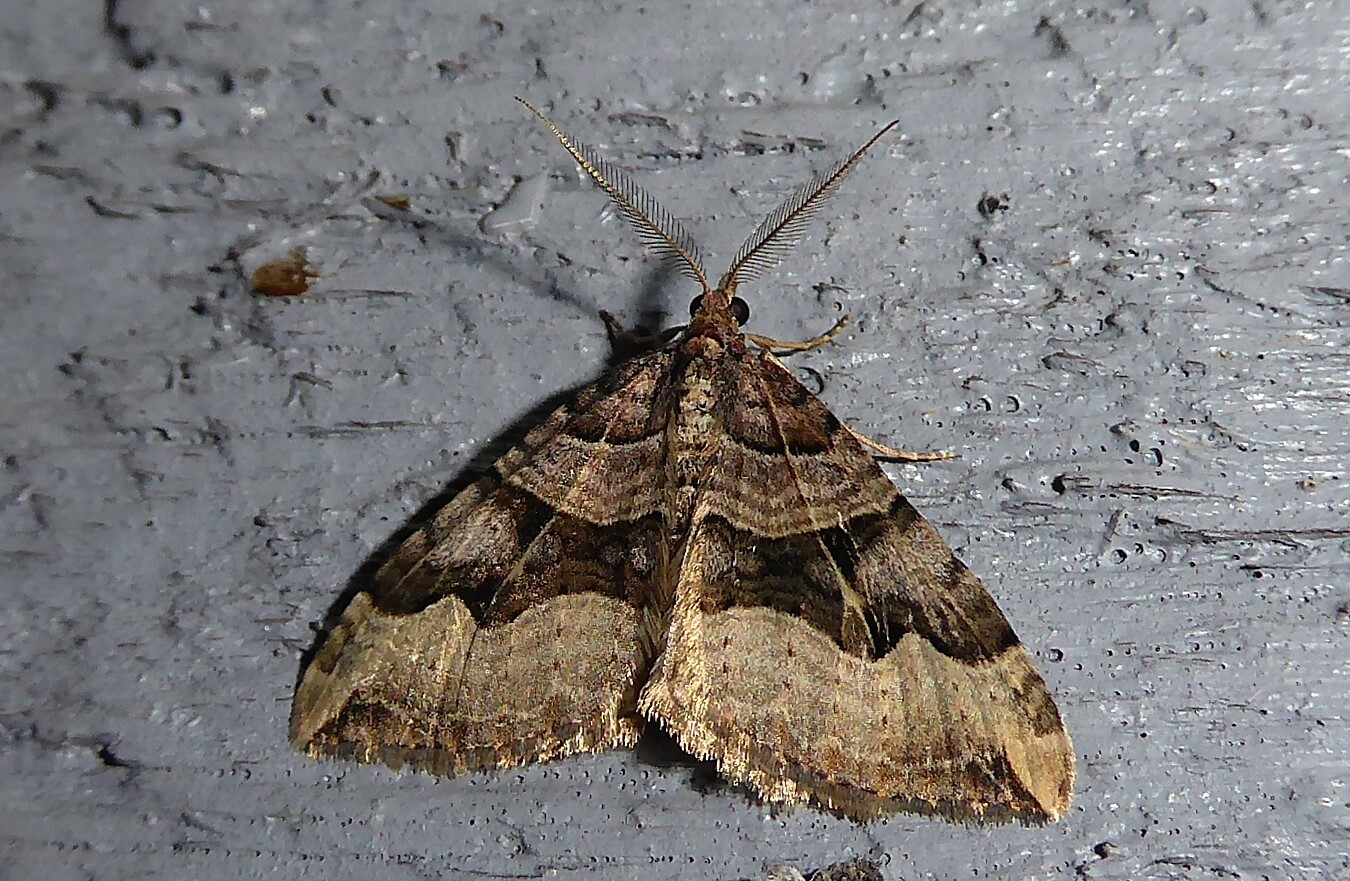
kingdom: Animalia
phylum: Arthropoda
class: Insecta
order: Lepidoptera
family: Geometridae
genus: Xanthorhoe
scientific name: Xanthorhoe semifissata
